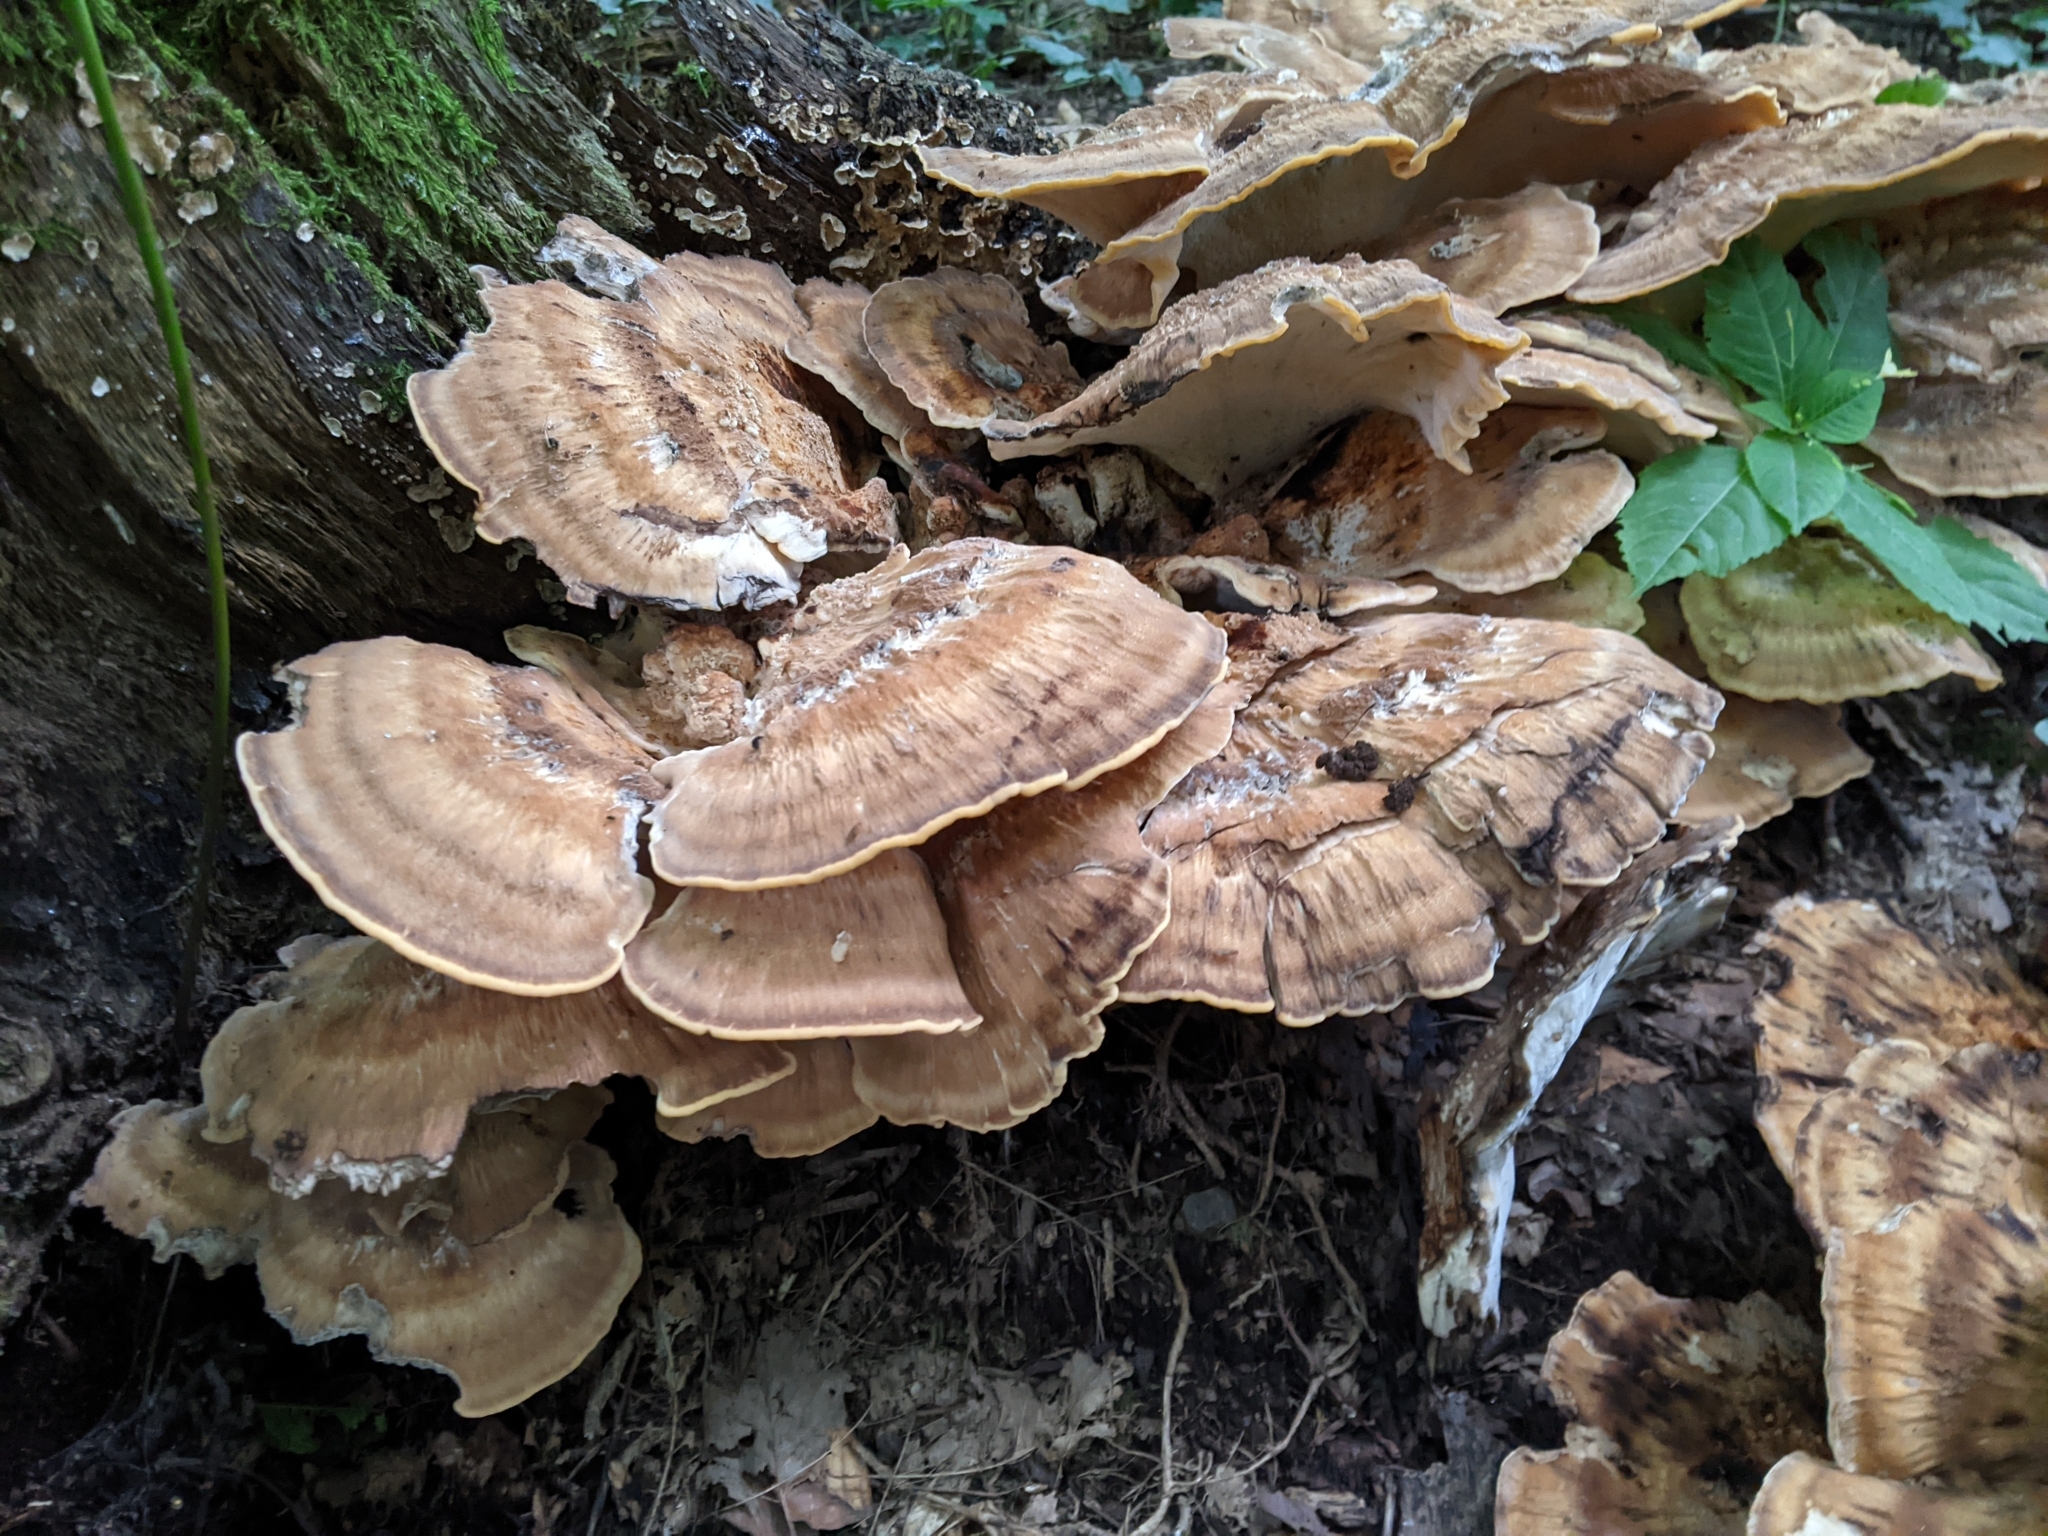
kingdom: Fungi
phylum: Basidiomycota
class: Agaricomycetes
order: Polyporales
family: Meripilaceae
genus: Meripilus
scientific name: Meripilus giganteus
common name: Giant polypore
